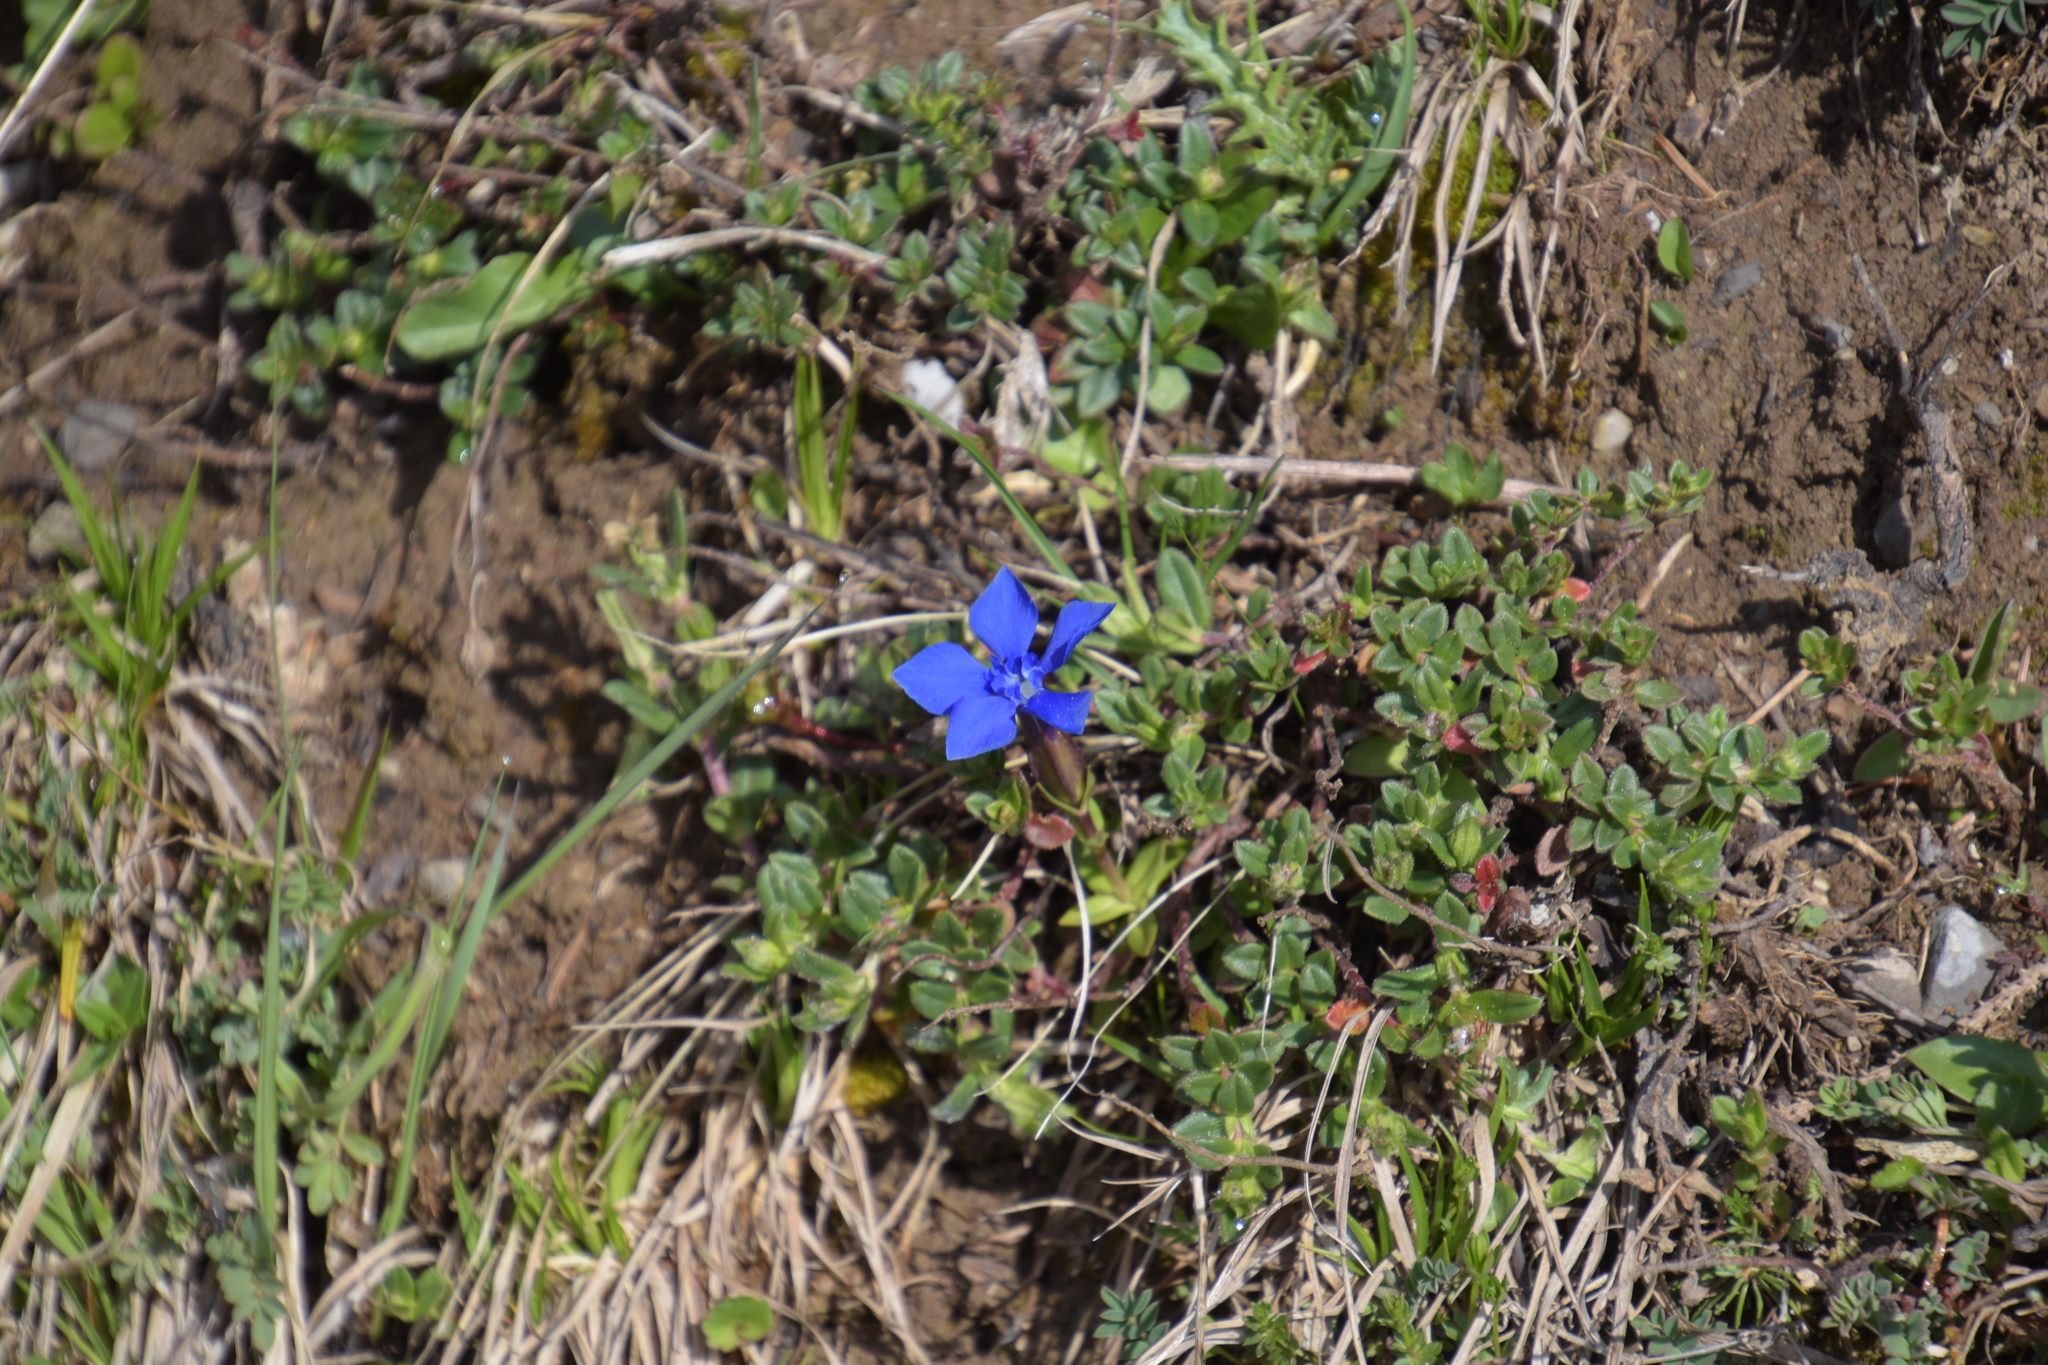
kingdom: Plantae
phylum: Tracheophyta
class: Magnoliopsida
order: Gentianales
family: Gentianaceae
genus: Gentiana
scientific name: Gentiana verna
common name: Spring gentian
